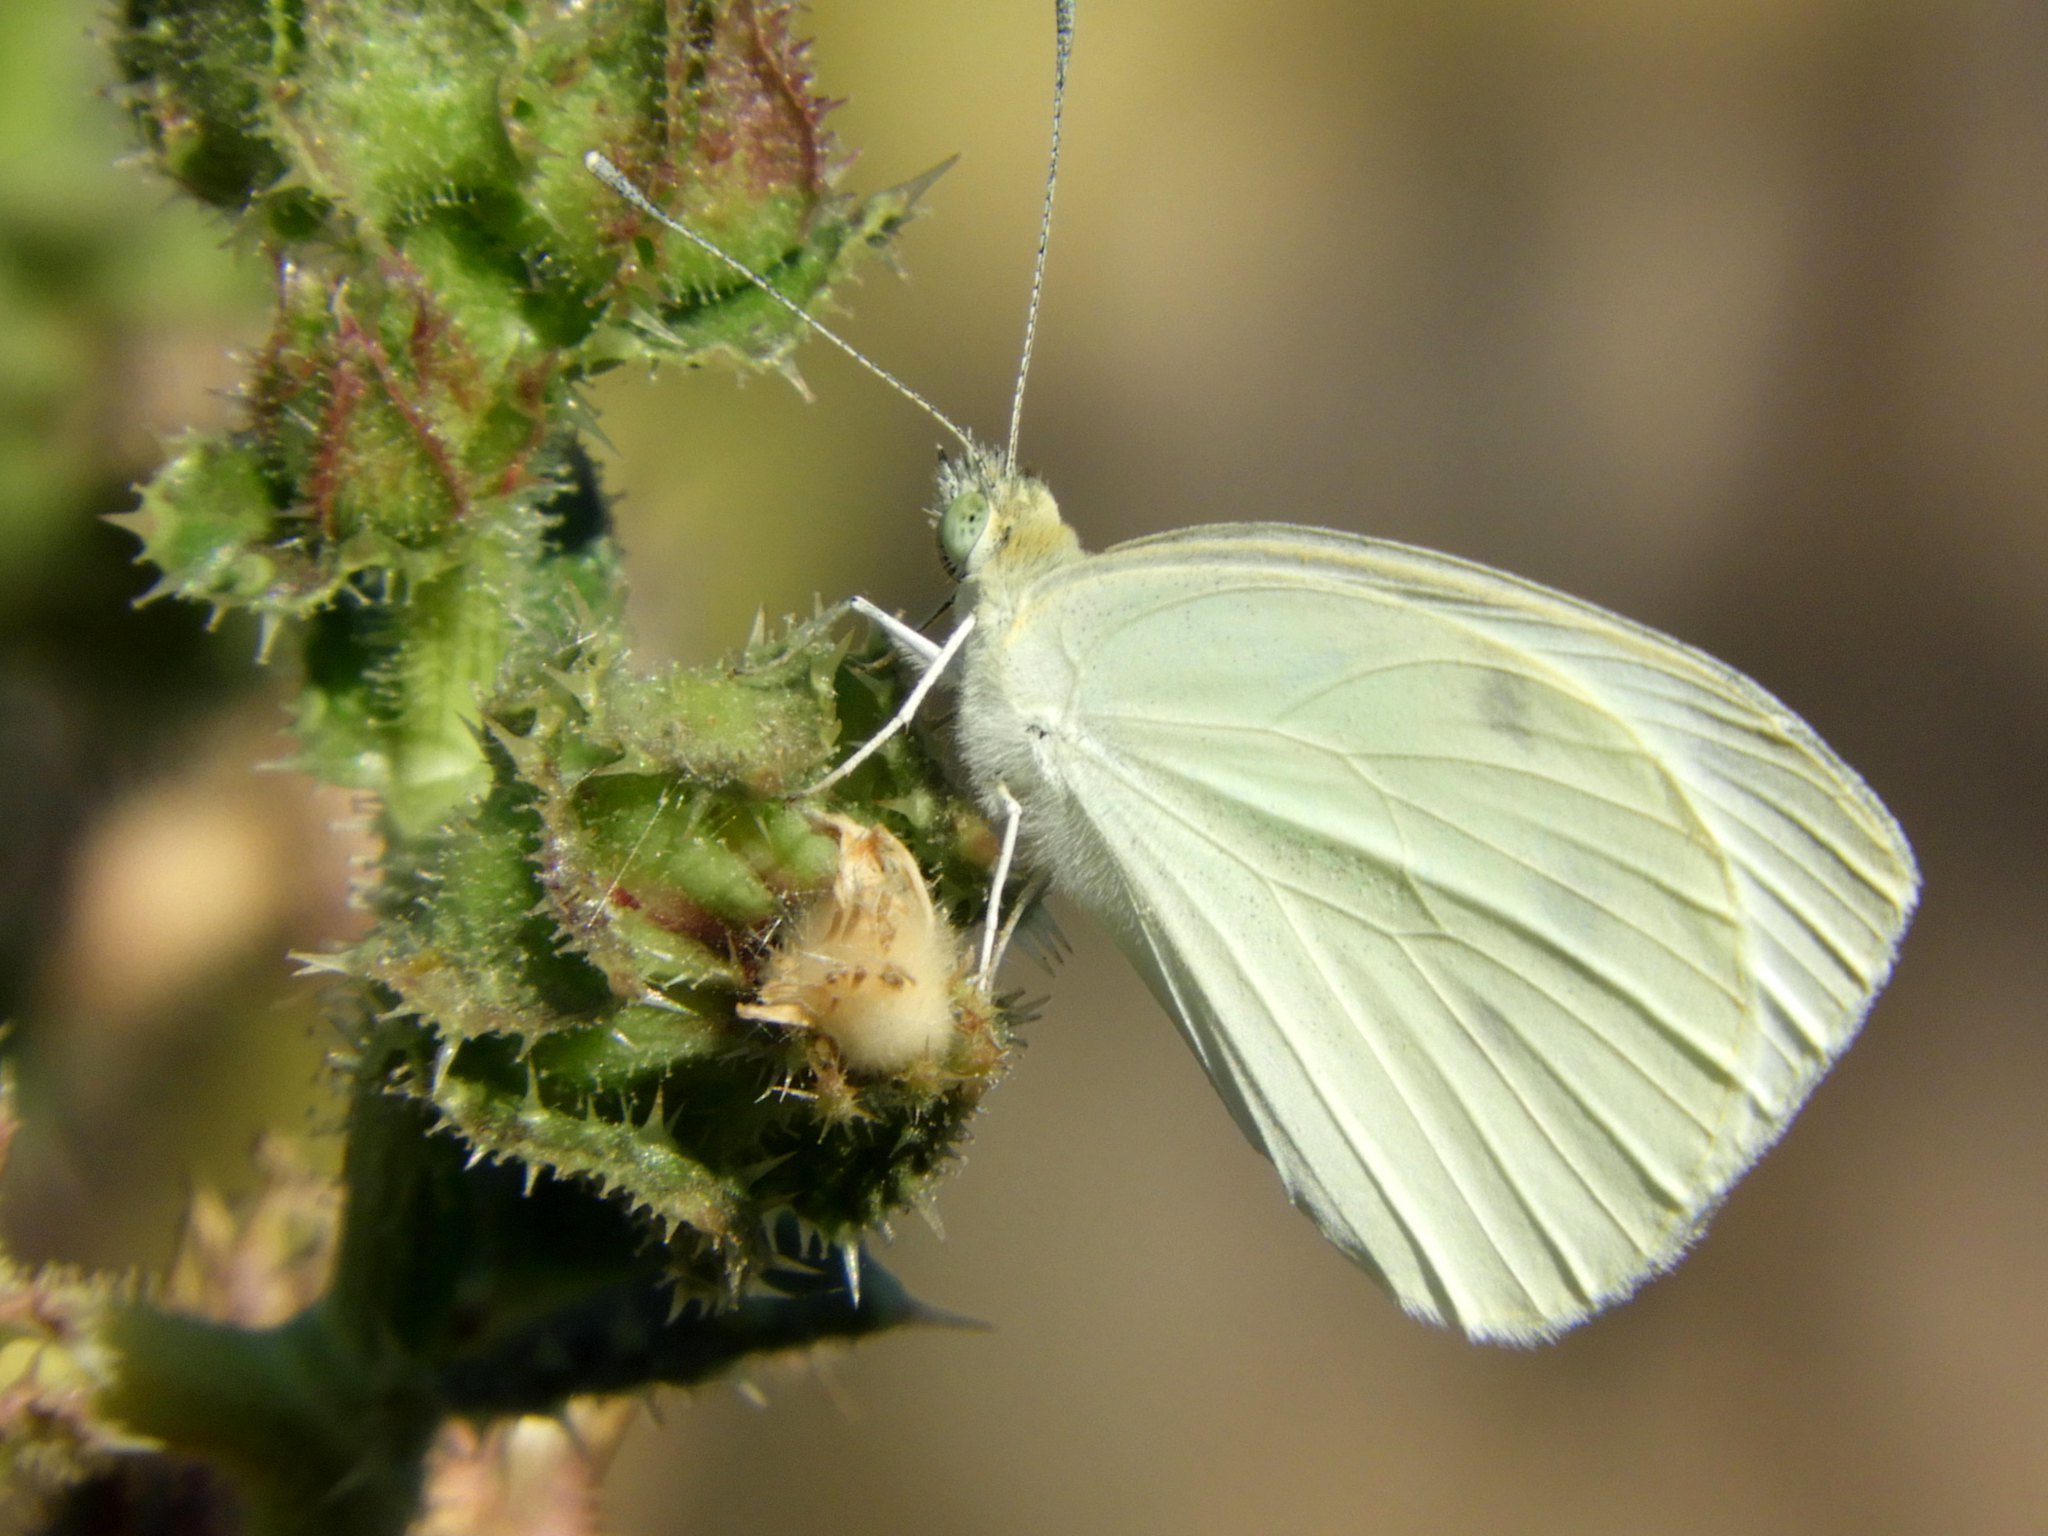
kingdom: Animalia
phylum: Arthropoda
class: Insecta
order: Lepidoptera
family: Pieridae
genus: Pieris
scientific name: Pieris rapae
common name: Small white
